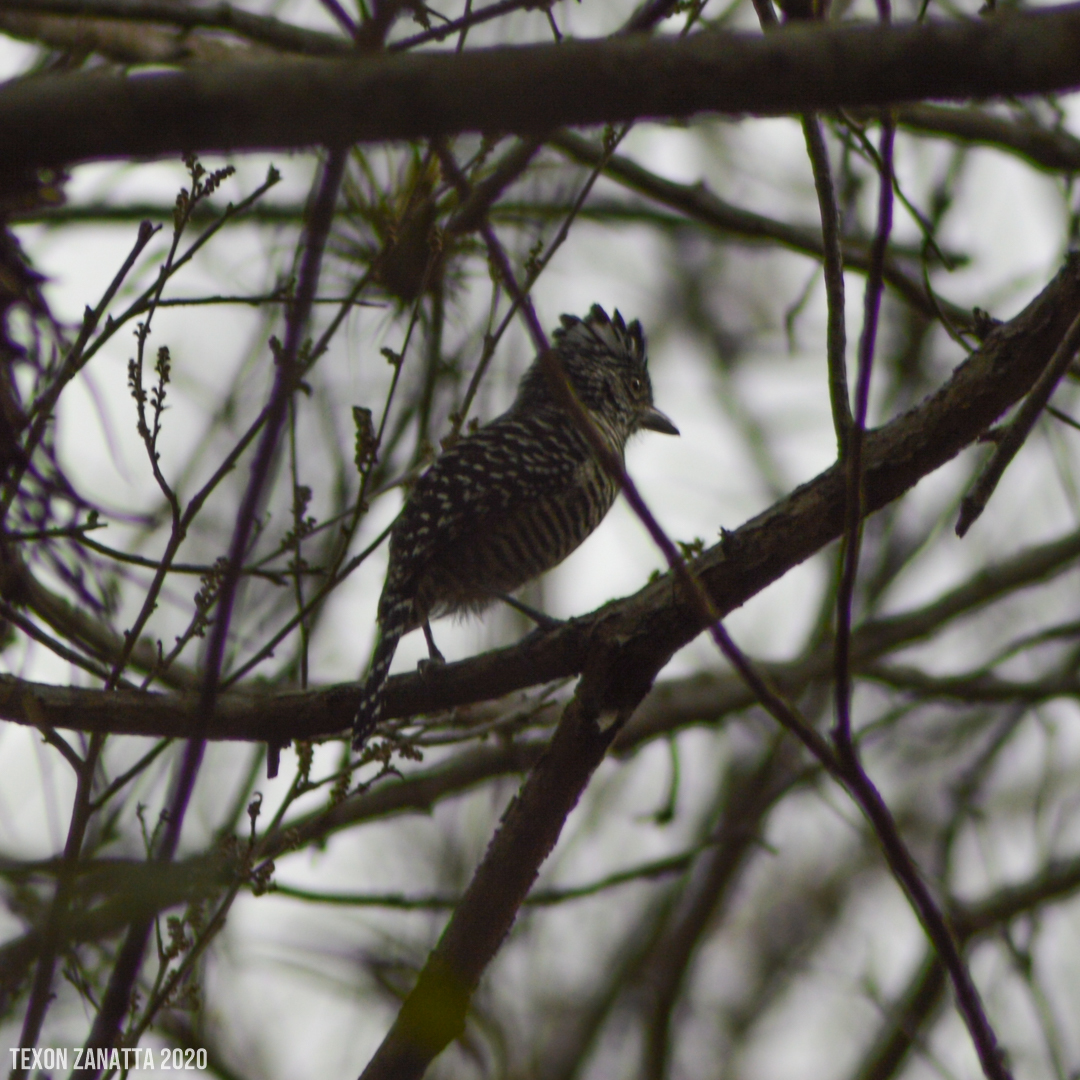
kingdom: Animalia
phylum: Chordata
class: Aves
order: Passeriformes
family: Thamnophilidae
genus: Thamnophilus
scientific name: Thamnophilus doliatus
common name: Barred antshrike
